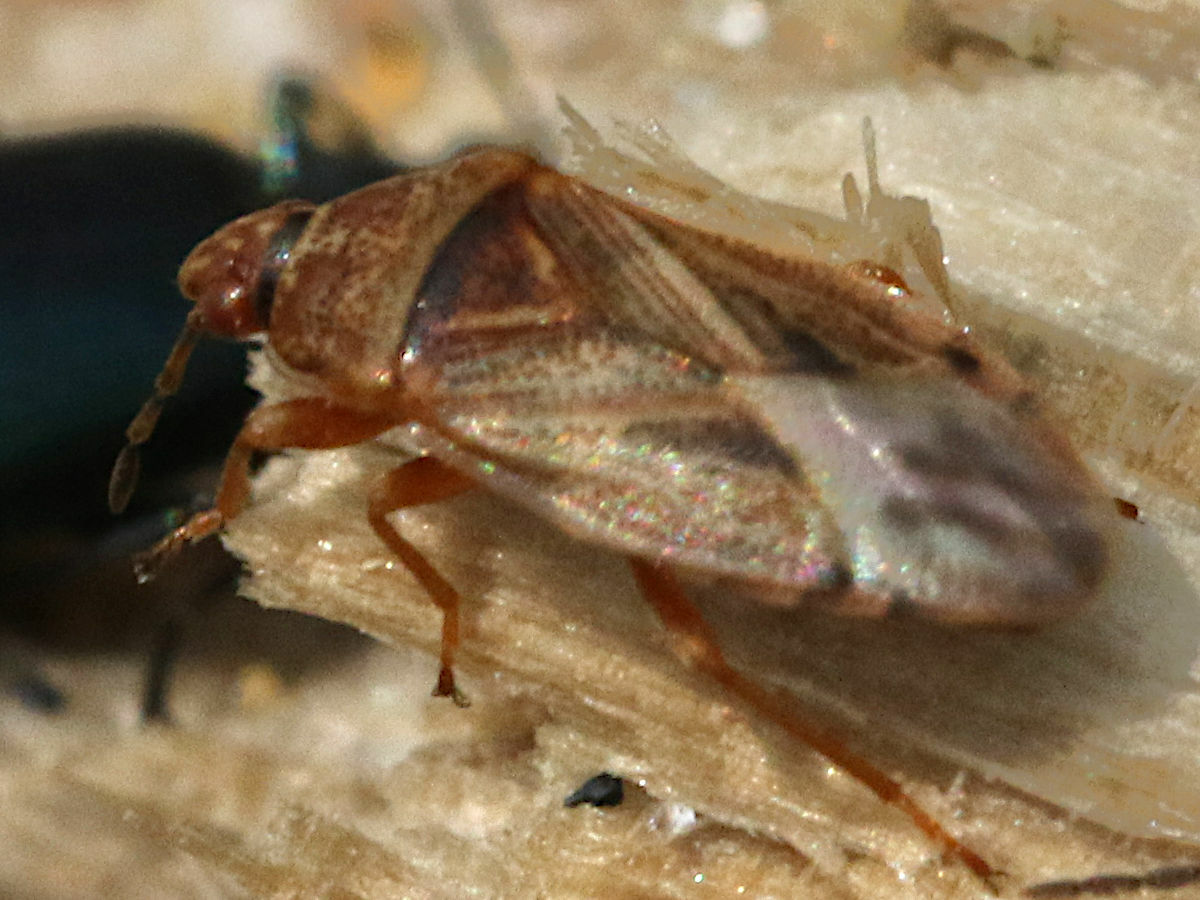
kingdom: Animalia
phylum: Arthropoda
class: Insecta
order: Hemiptera
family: Artheneidae
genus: Chilacis
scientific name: Chilacis typhae
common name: Cattail bug
